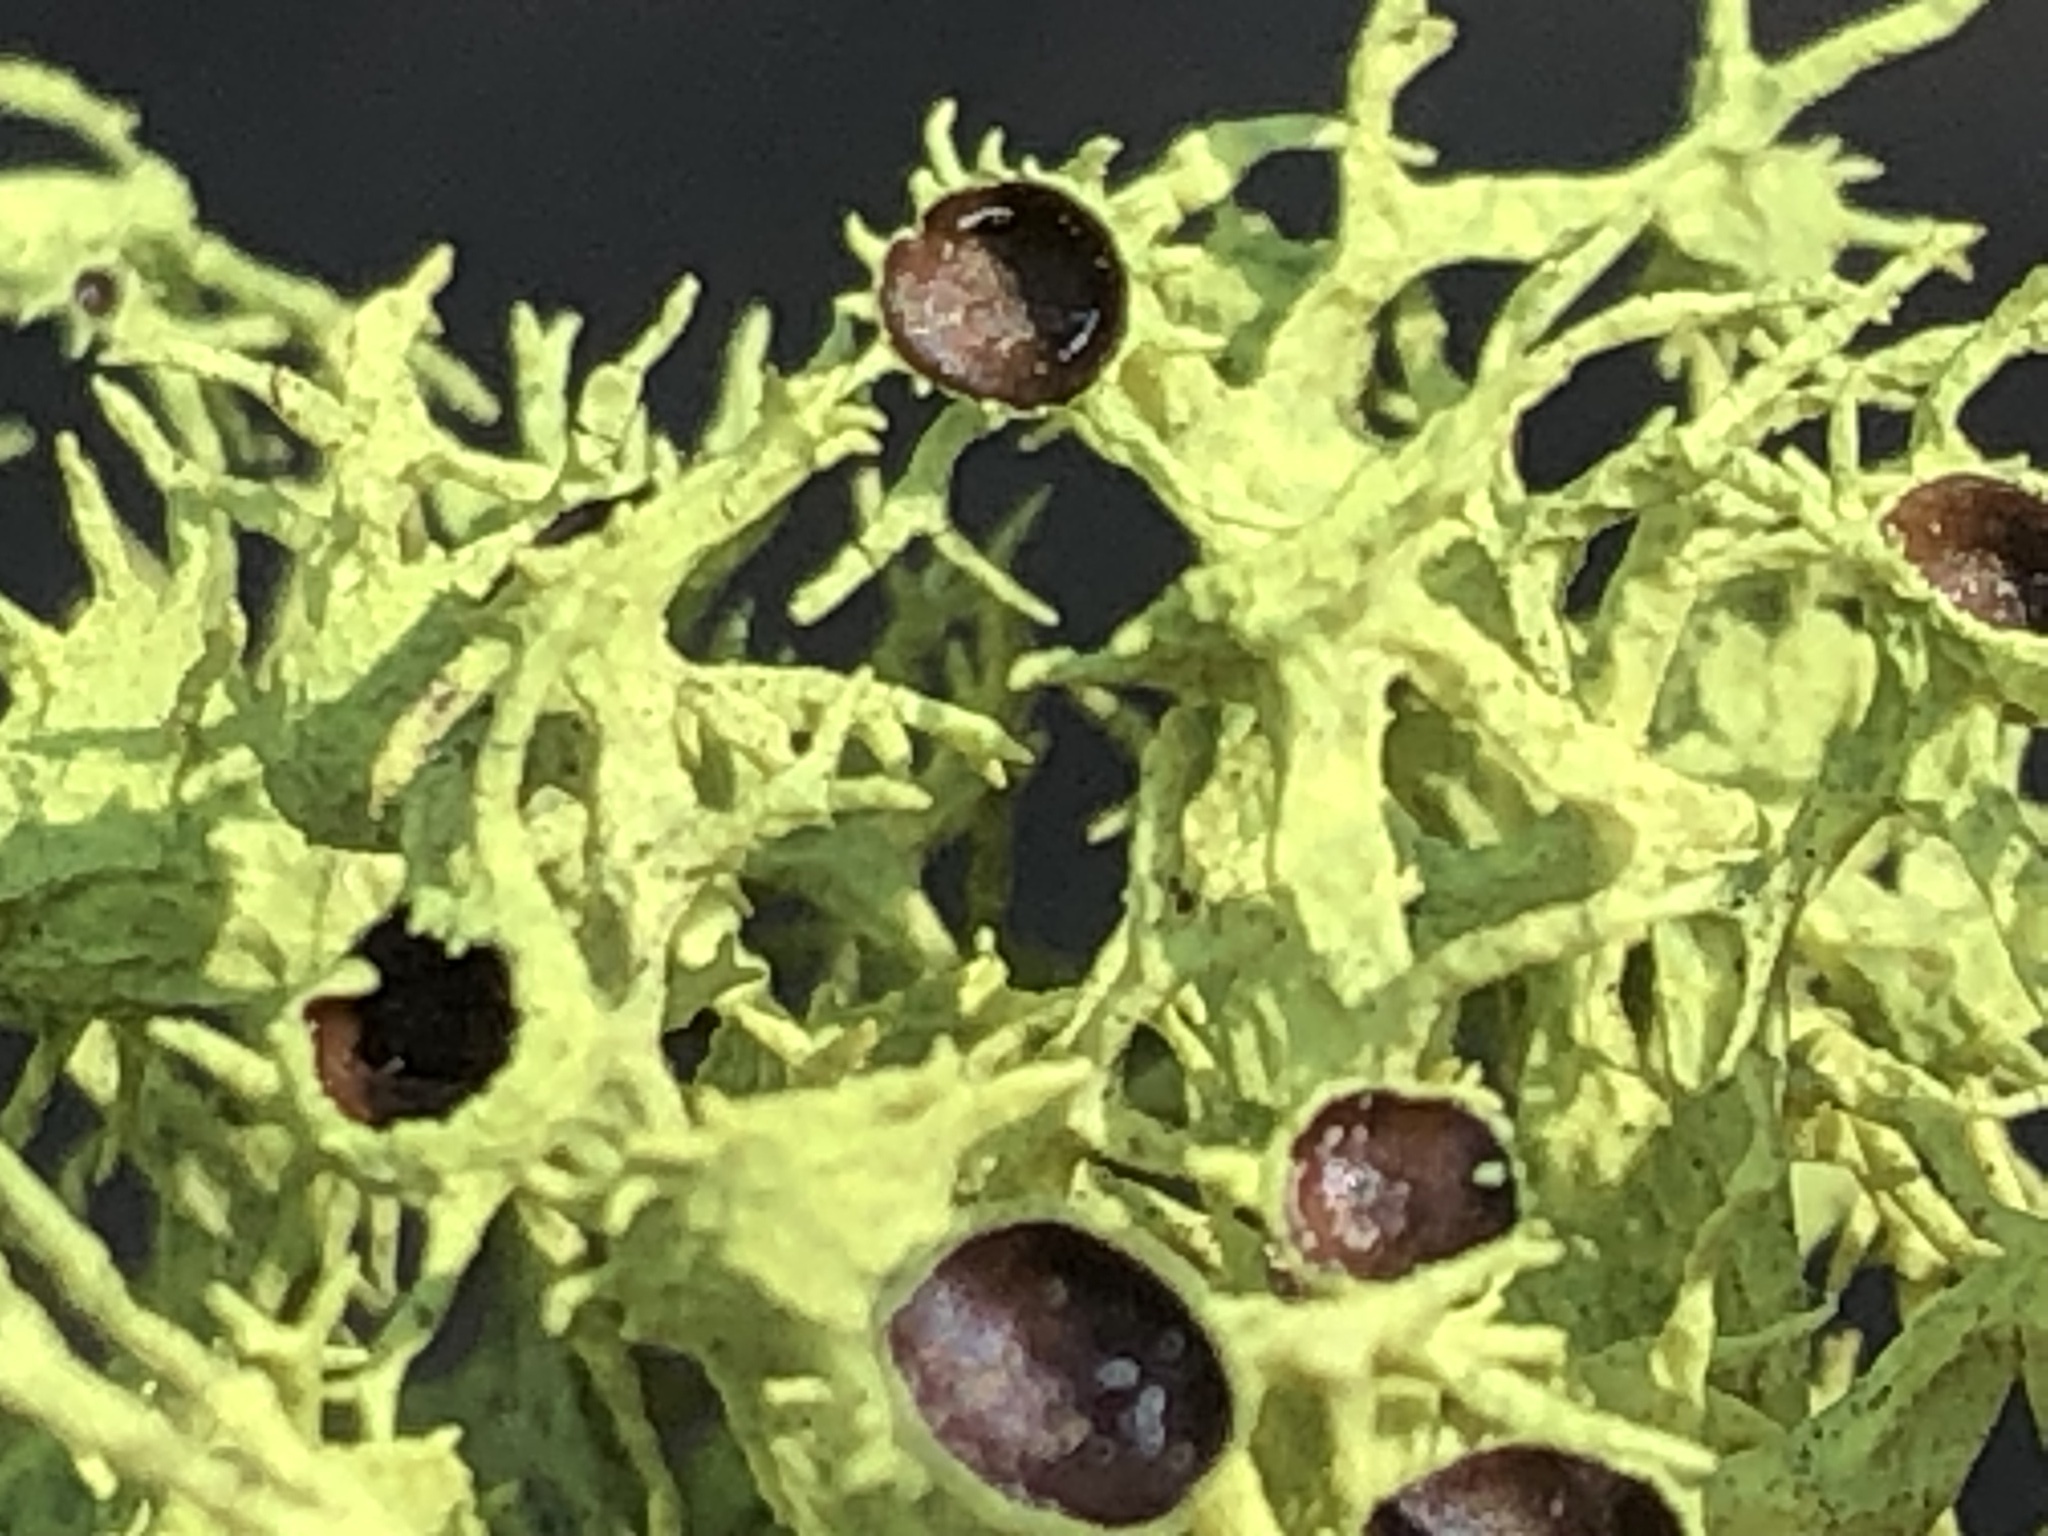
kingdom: Fungi
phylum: Ascomycota
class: Lecanoromycetes
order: Lecanorales
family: Parmeliaceae
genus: Letharia
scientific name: Letharia columbiana
